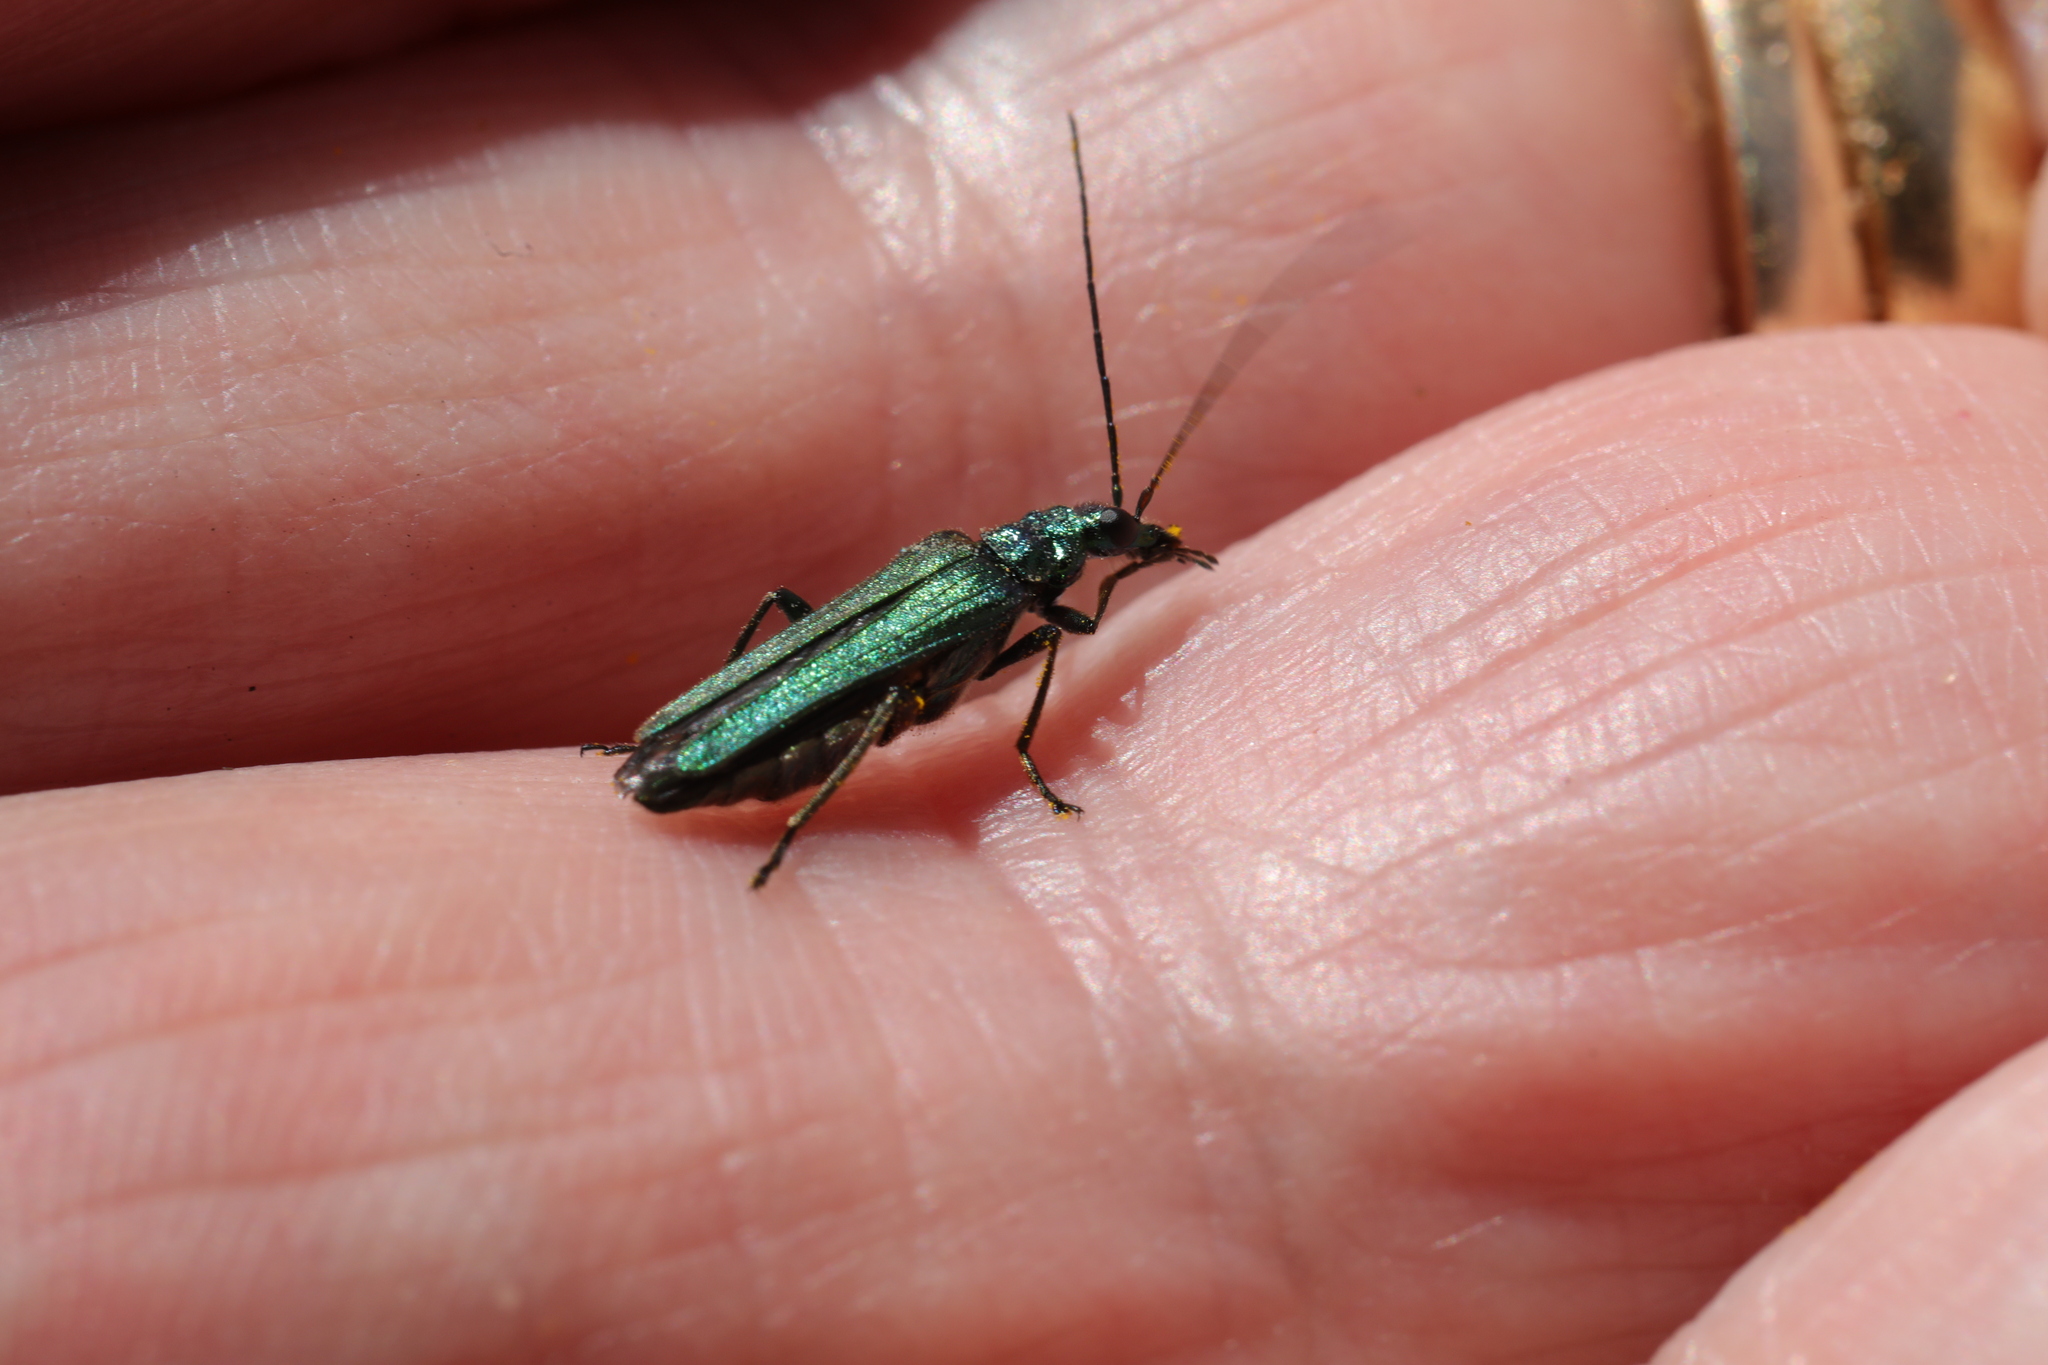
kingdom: Animalia
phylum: Arthropoda
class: Insecta
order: Coleoptera
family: Oedemeridae
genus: Oedemera
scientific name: Oedemera nobilis
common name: Swollen-thighed beetle
